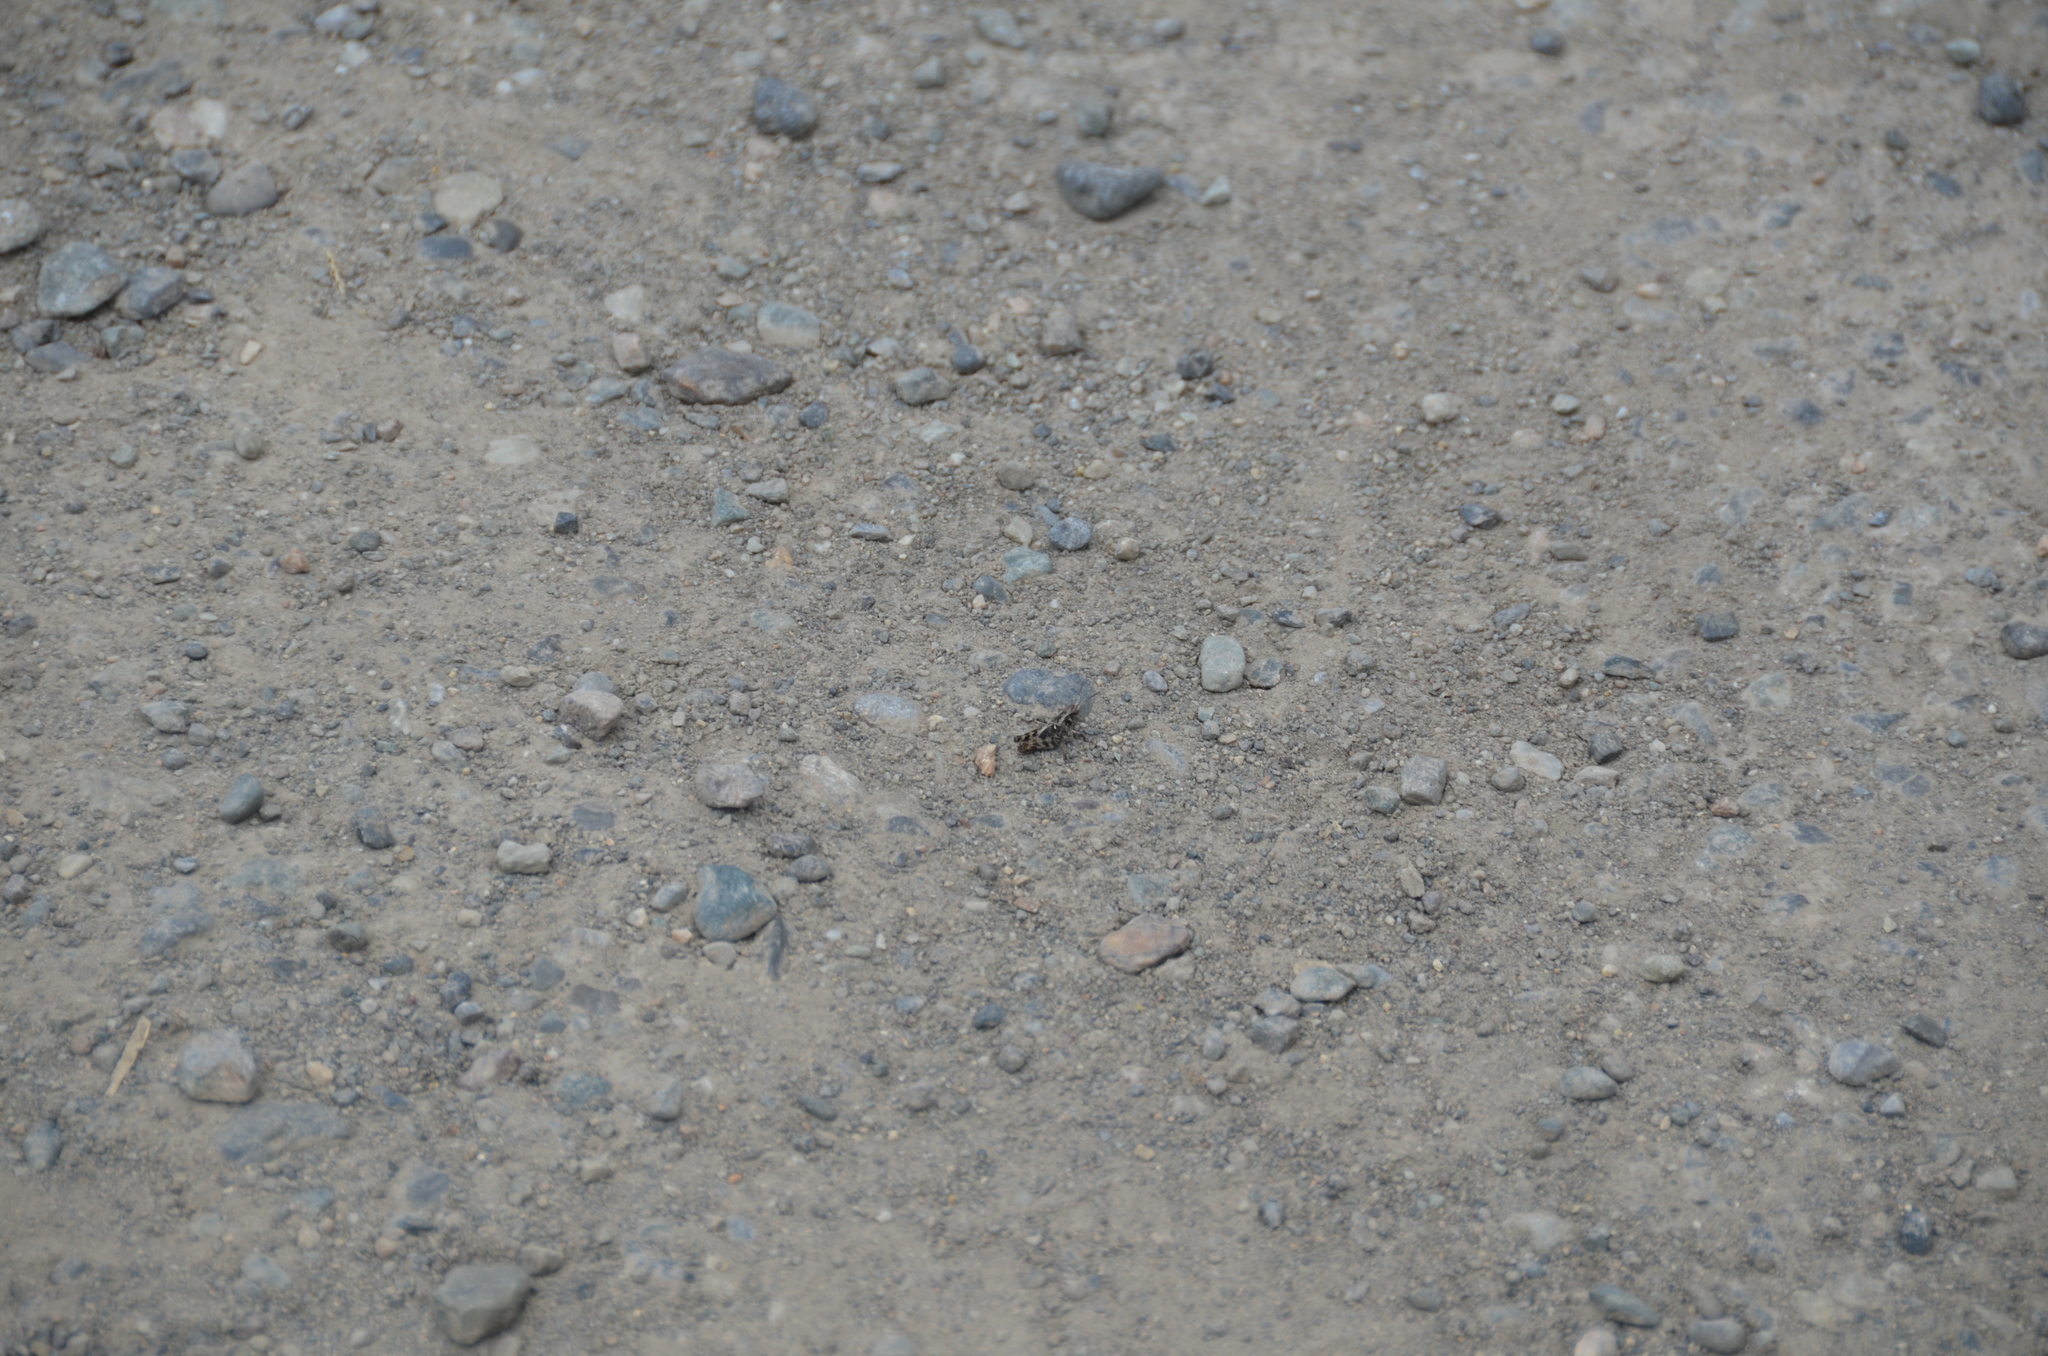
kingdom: Animalia
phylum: Arthropoda
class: Insecta
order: Orthoptera
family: Acrididae
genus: Camnula
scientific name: Camnula pellucida
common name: Clear-winged grasshopper
